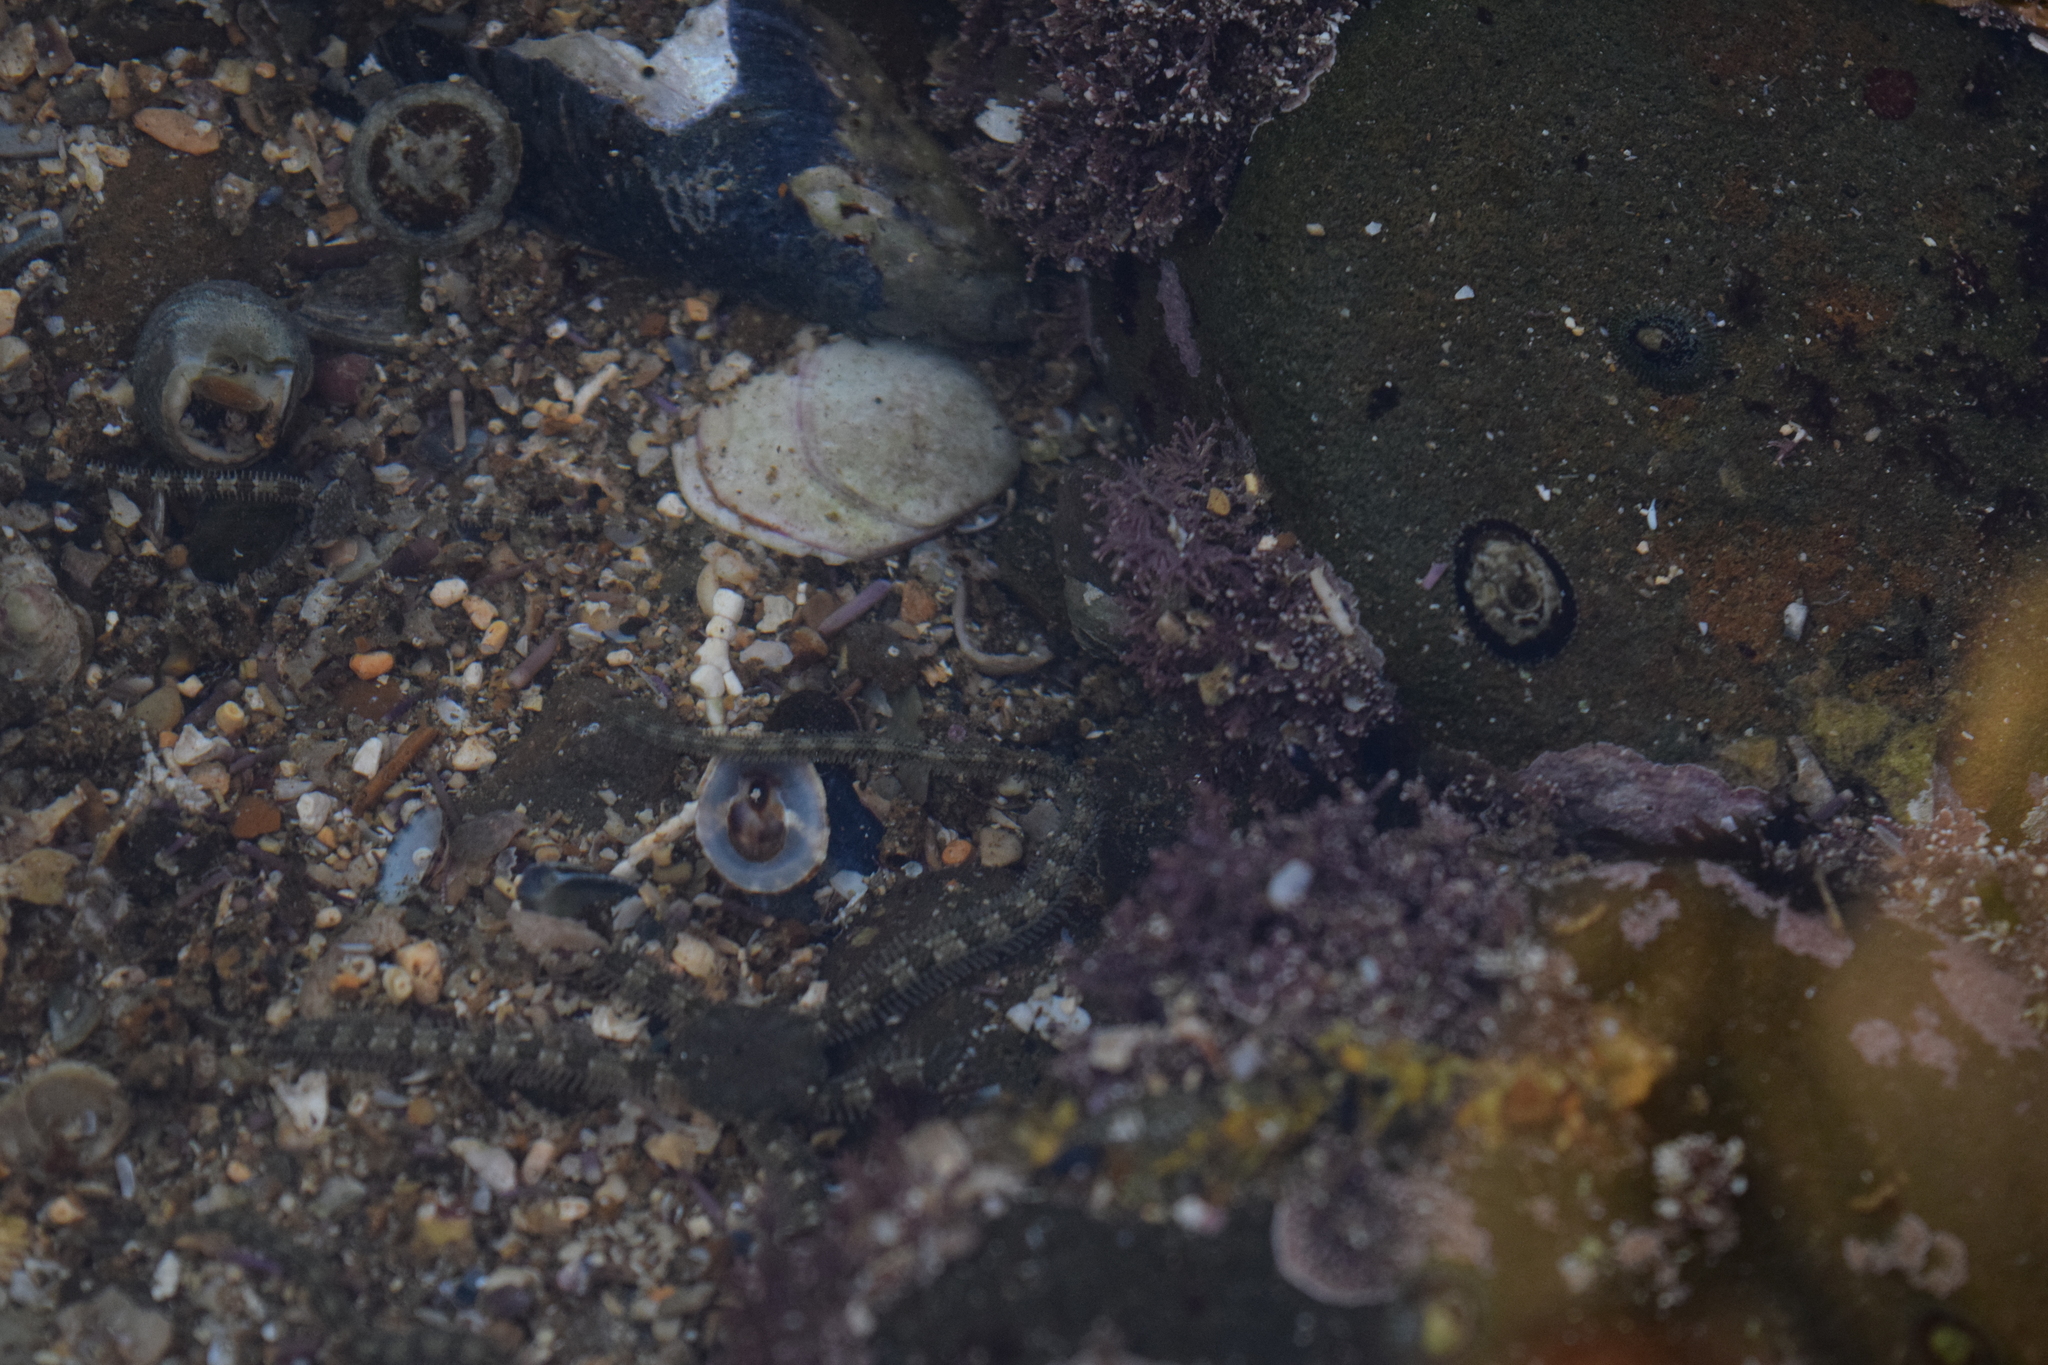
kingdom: Animalia
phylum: Echinodermata
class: Ophiuroidea
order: Amphilepidida
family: Ophionereididae
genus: Ophionereis
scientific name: Ophionereis annulata
